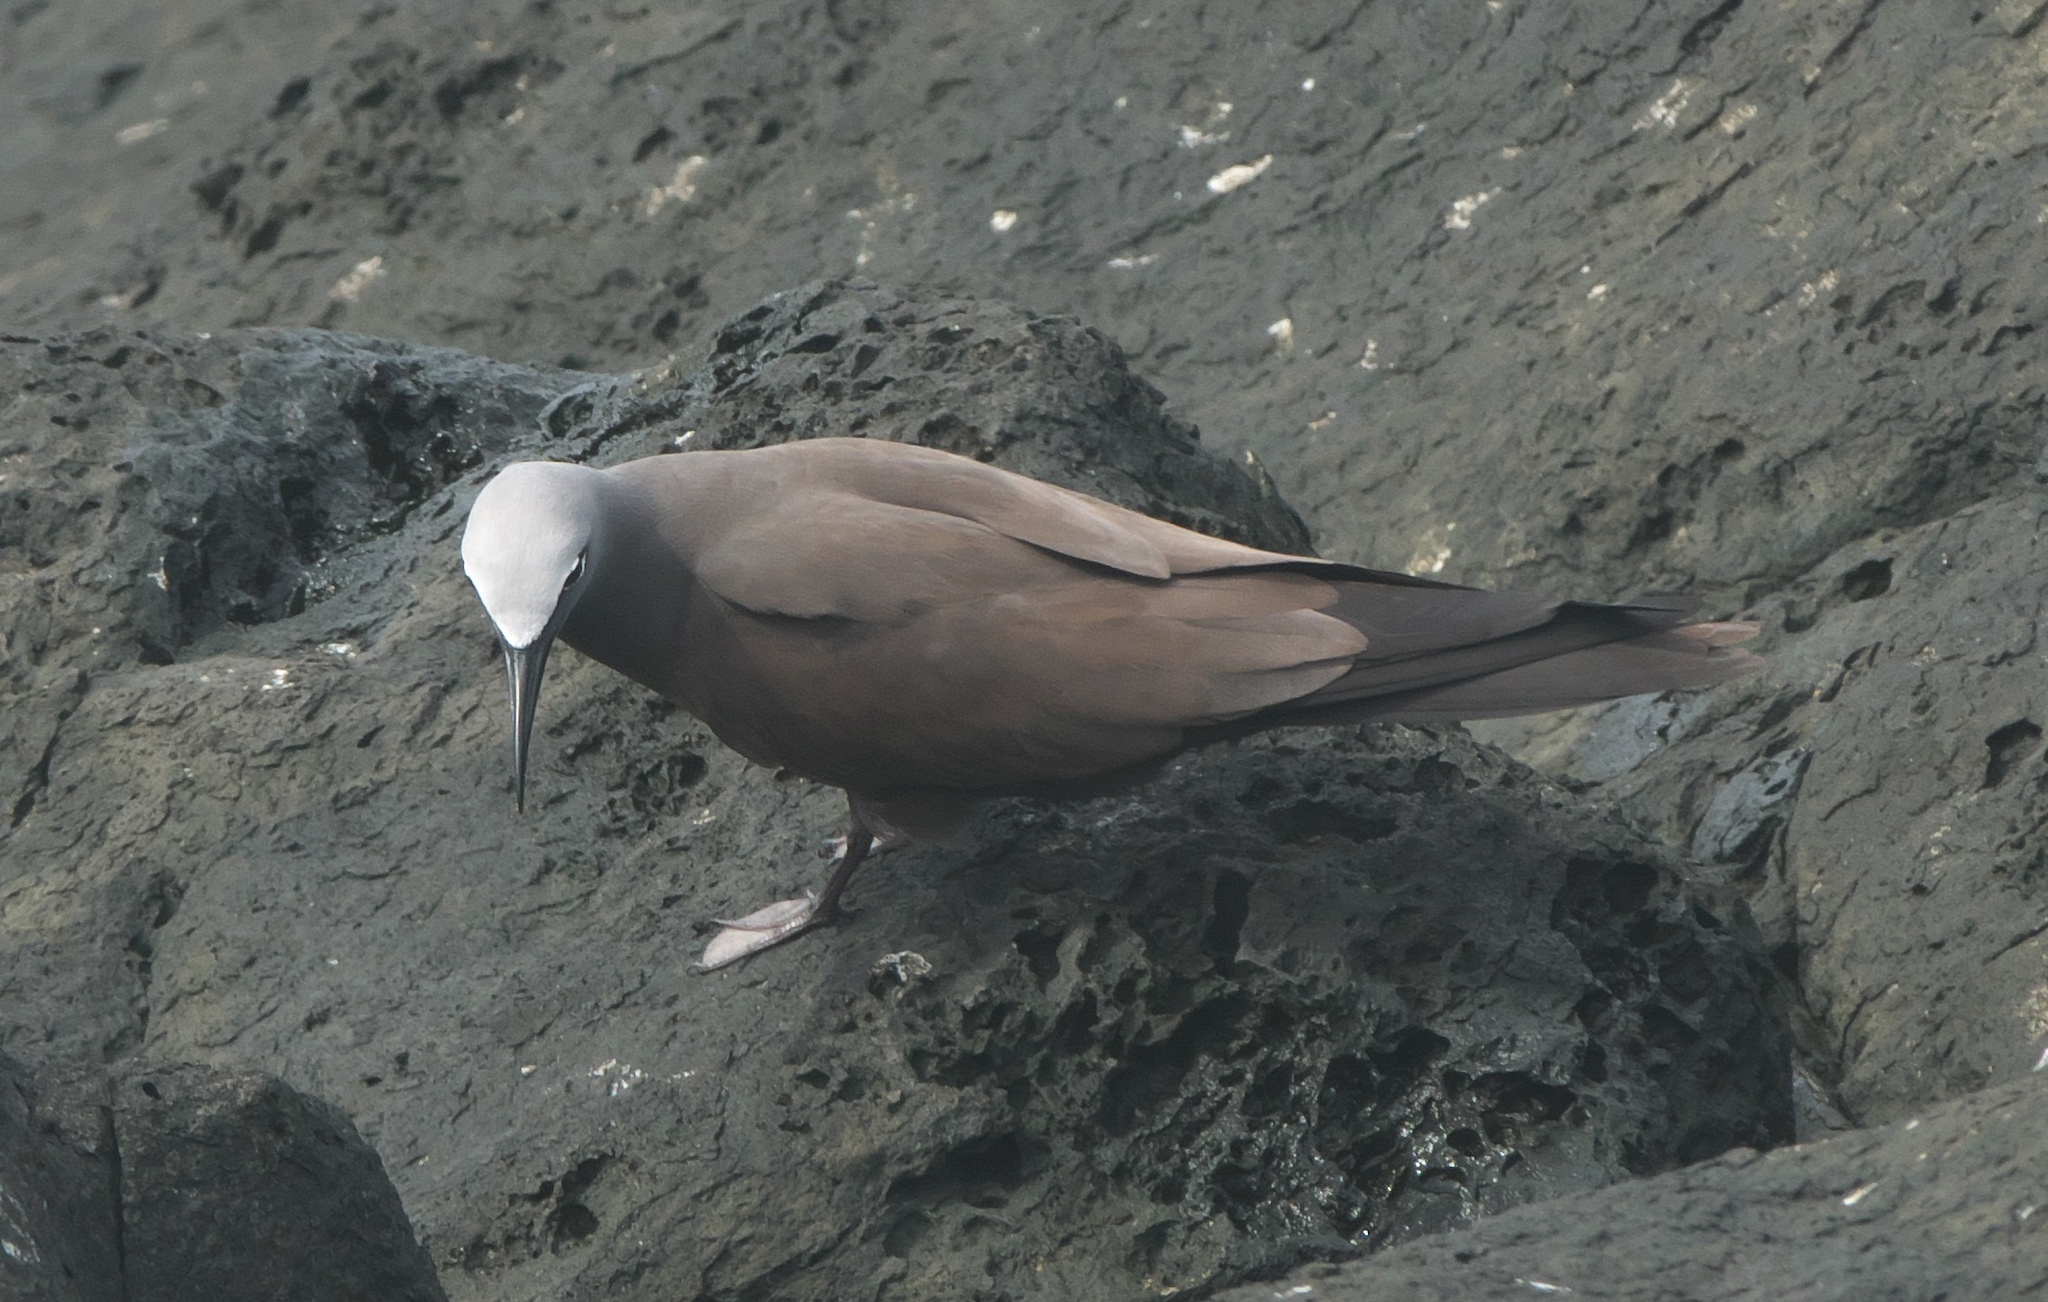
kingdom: Animalia
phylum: Chordata
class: Aves
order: Charadriiformes
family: Laridae
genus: Anous
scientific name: Anous stolidus
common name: Brown noddy
